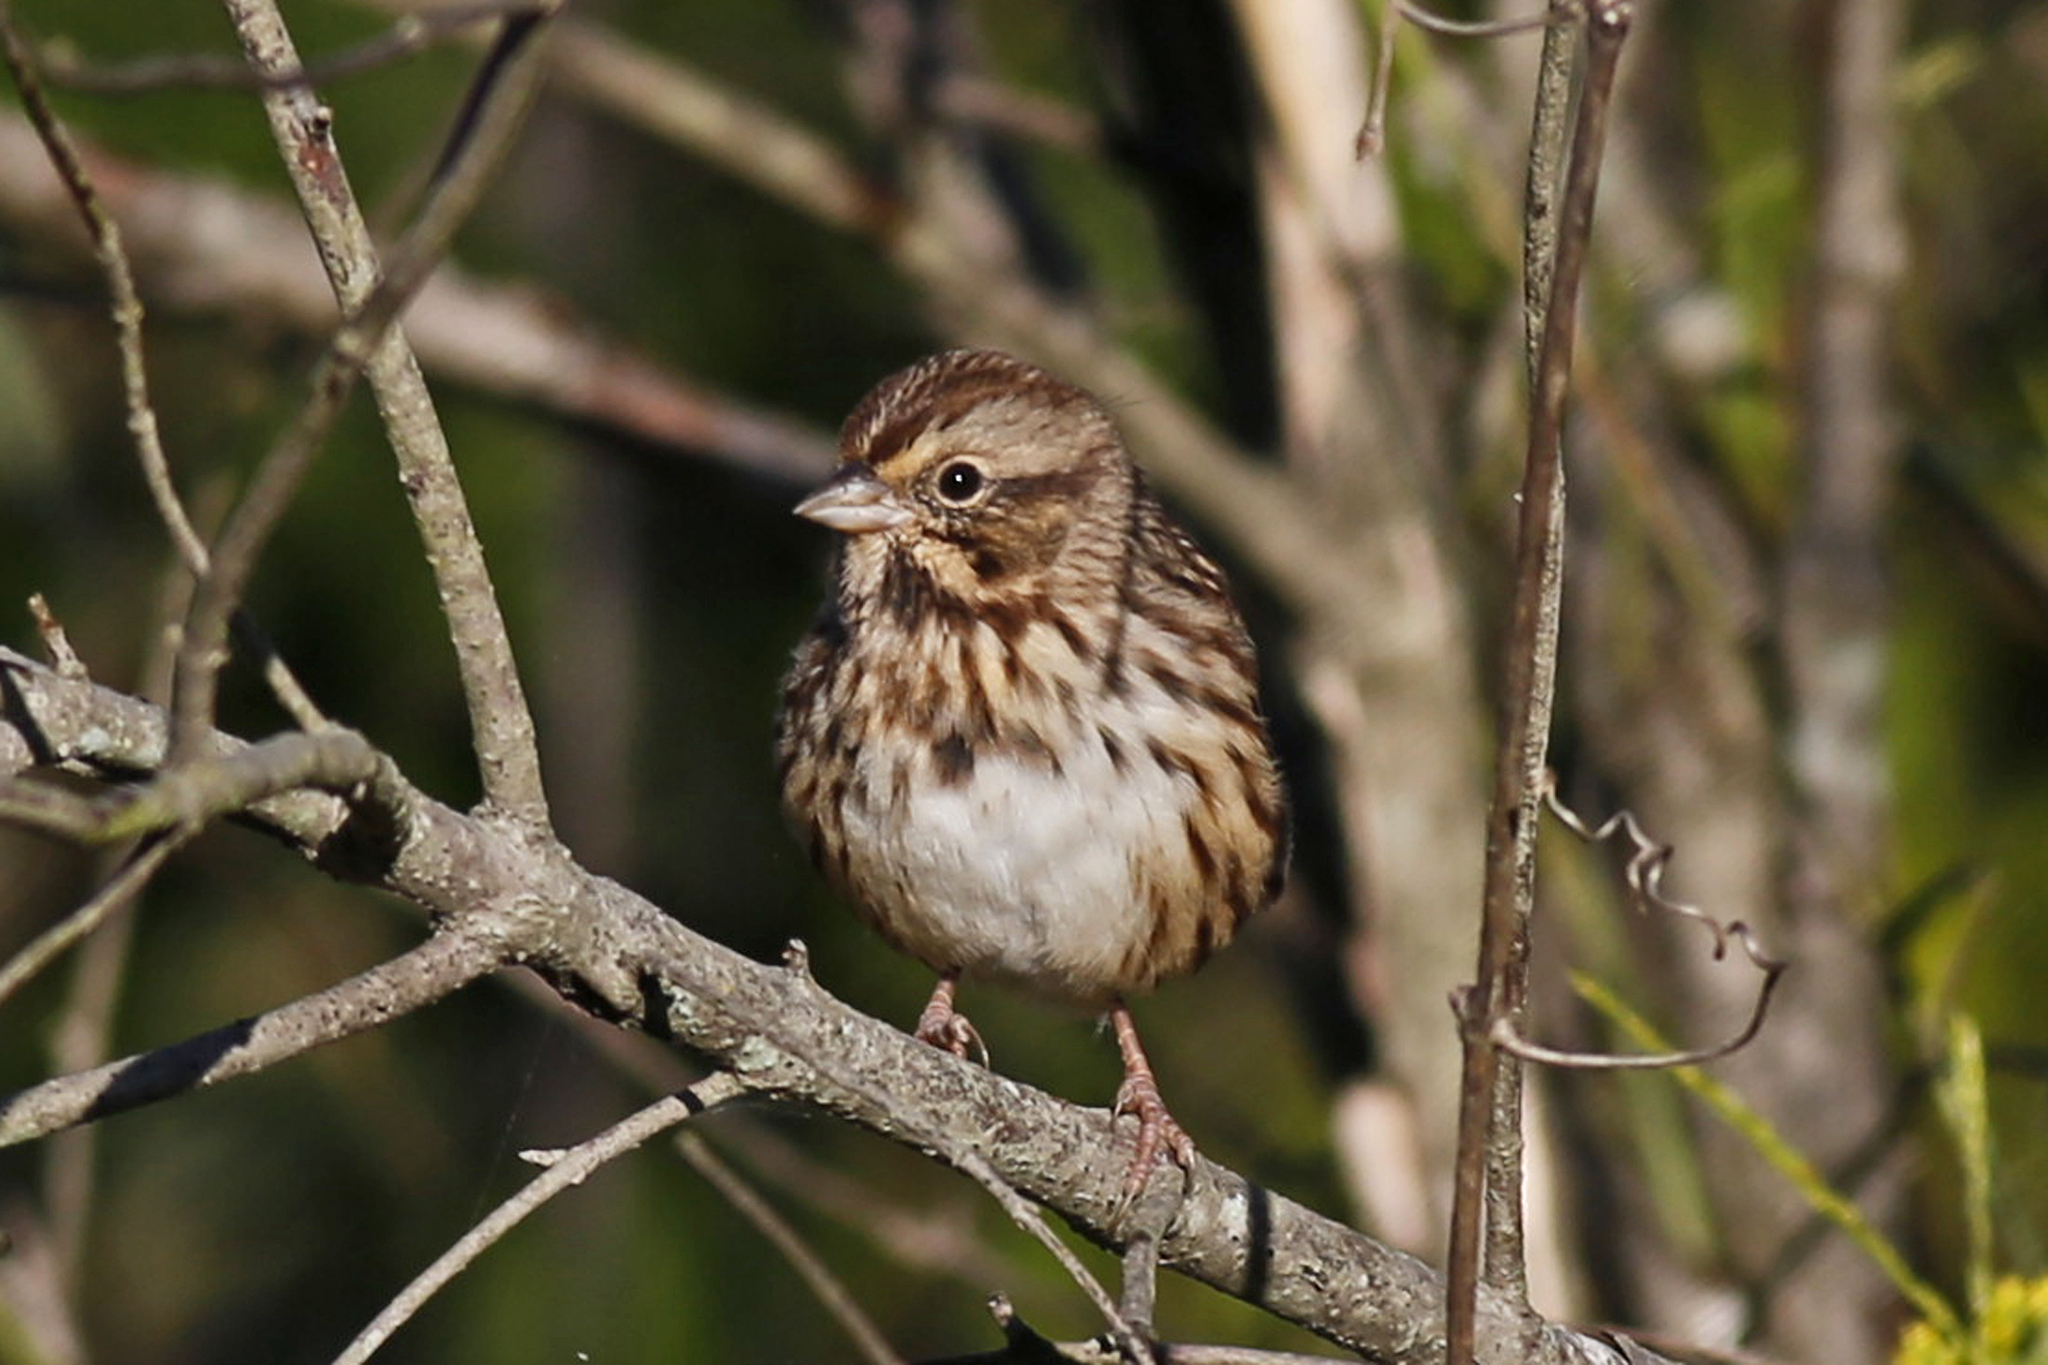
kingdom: Animalia
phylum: Chordata
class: Aves
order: Passeriformes
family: Passerellidae
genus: Melospiza
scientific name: Melospiza melodia
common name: Song sparrow
